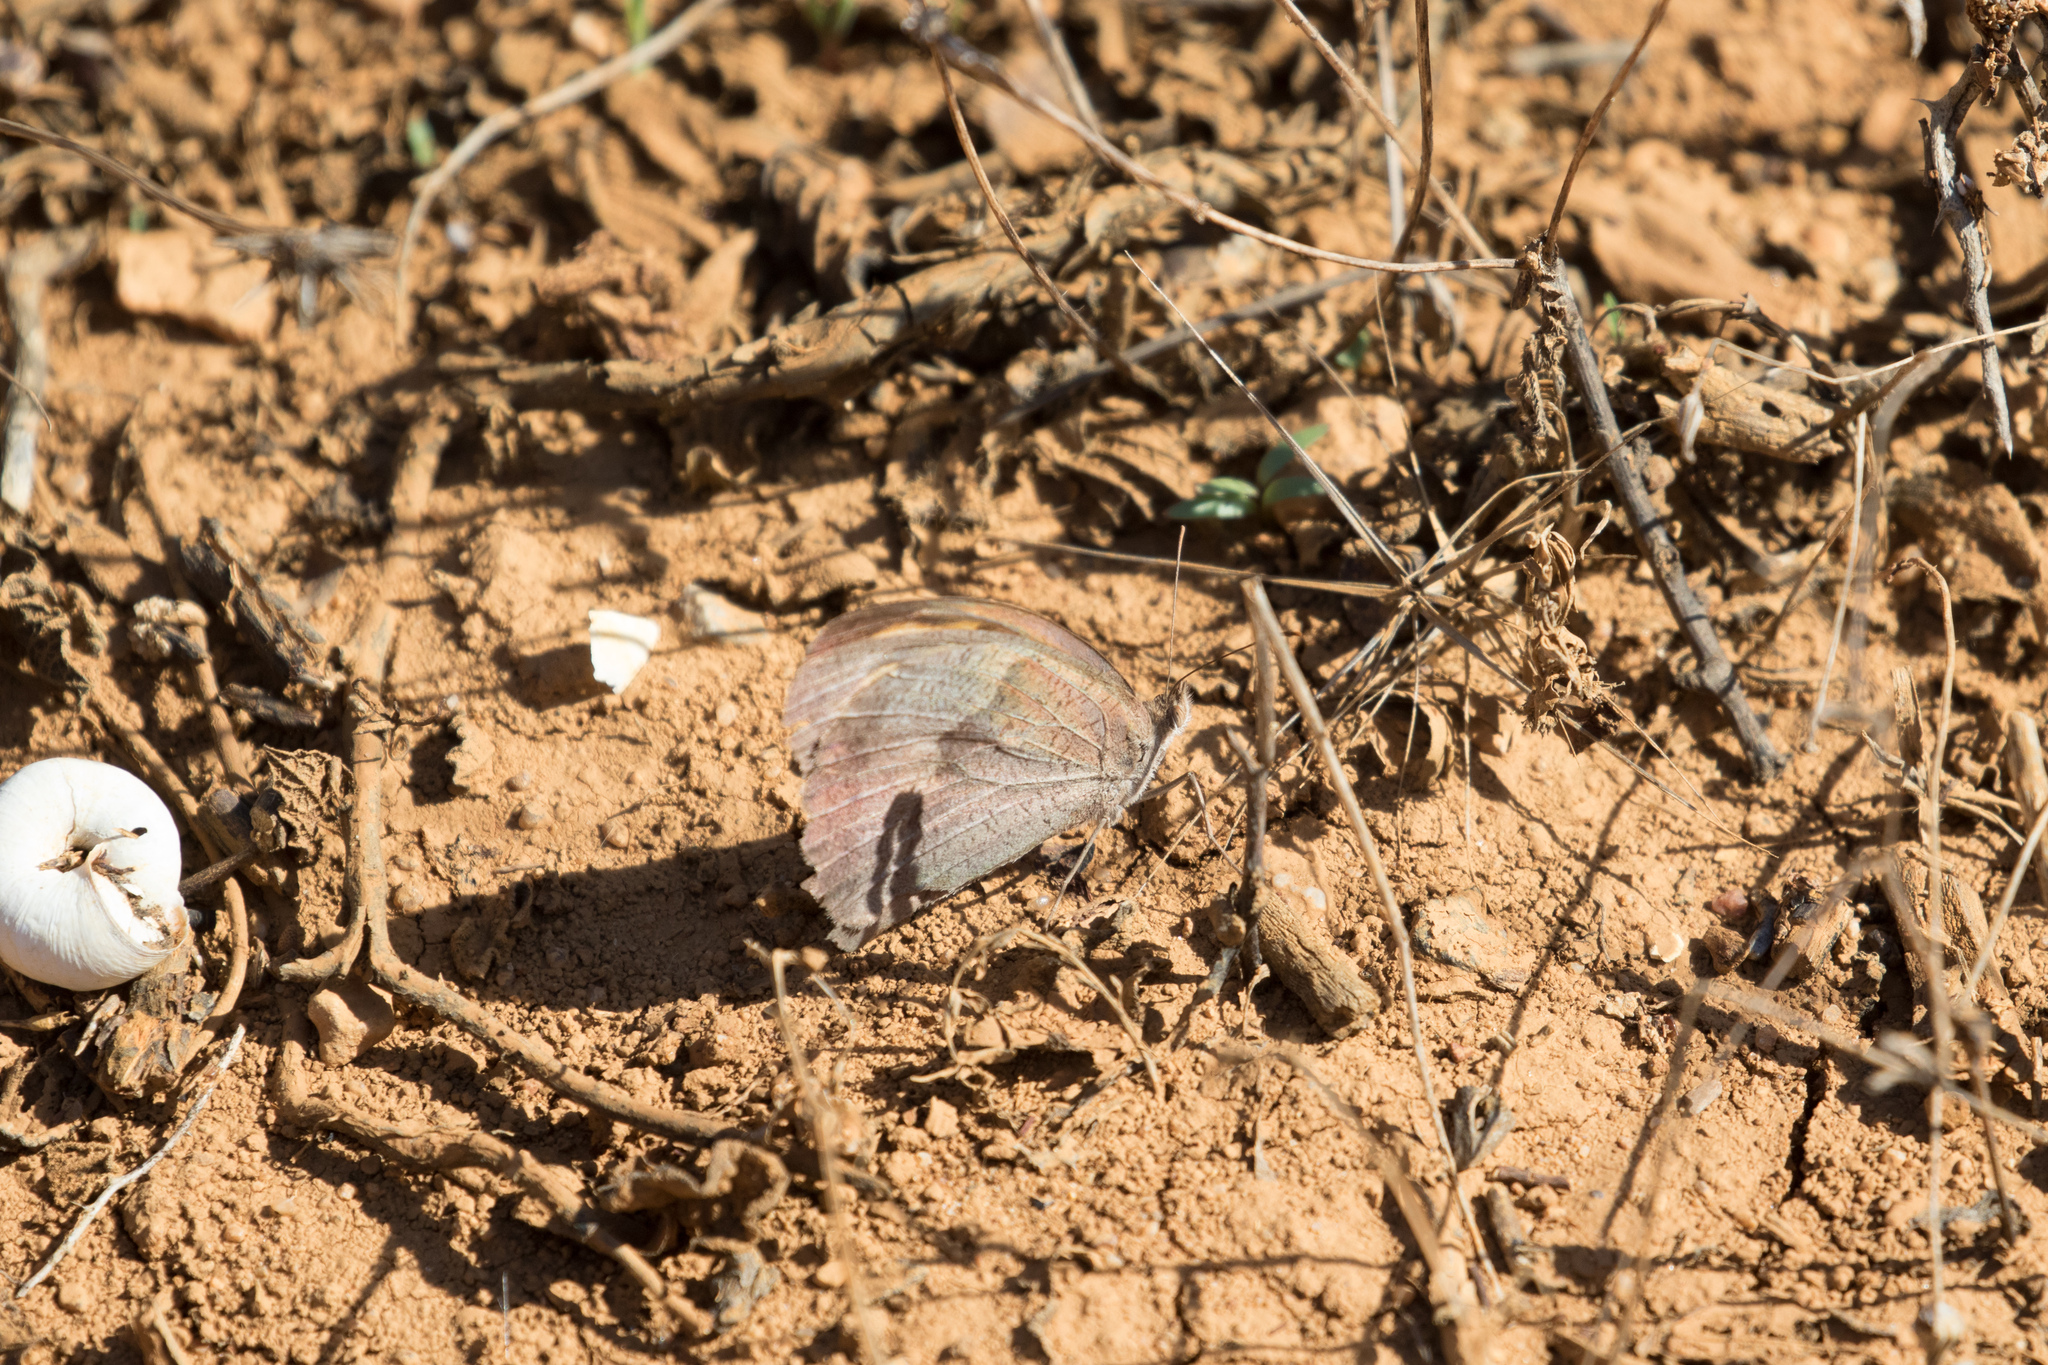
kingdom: Animalia
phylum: Arthropoda
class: Insecta
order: Lepidoptera
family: Nymphalidae
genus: Maniola
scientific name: Maniola jurtina
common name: Meadow brown
